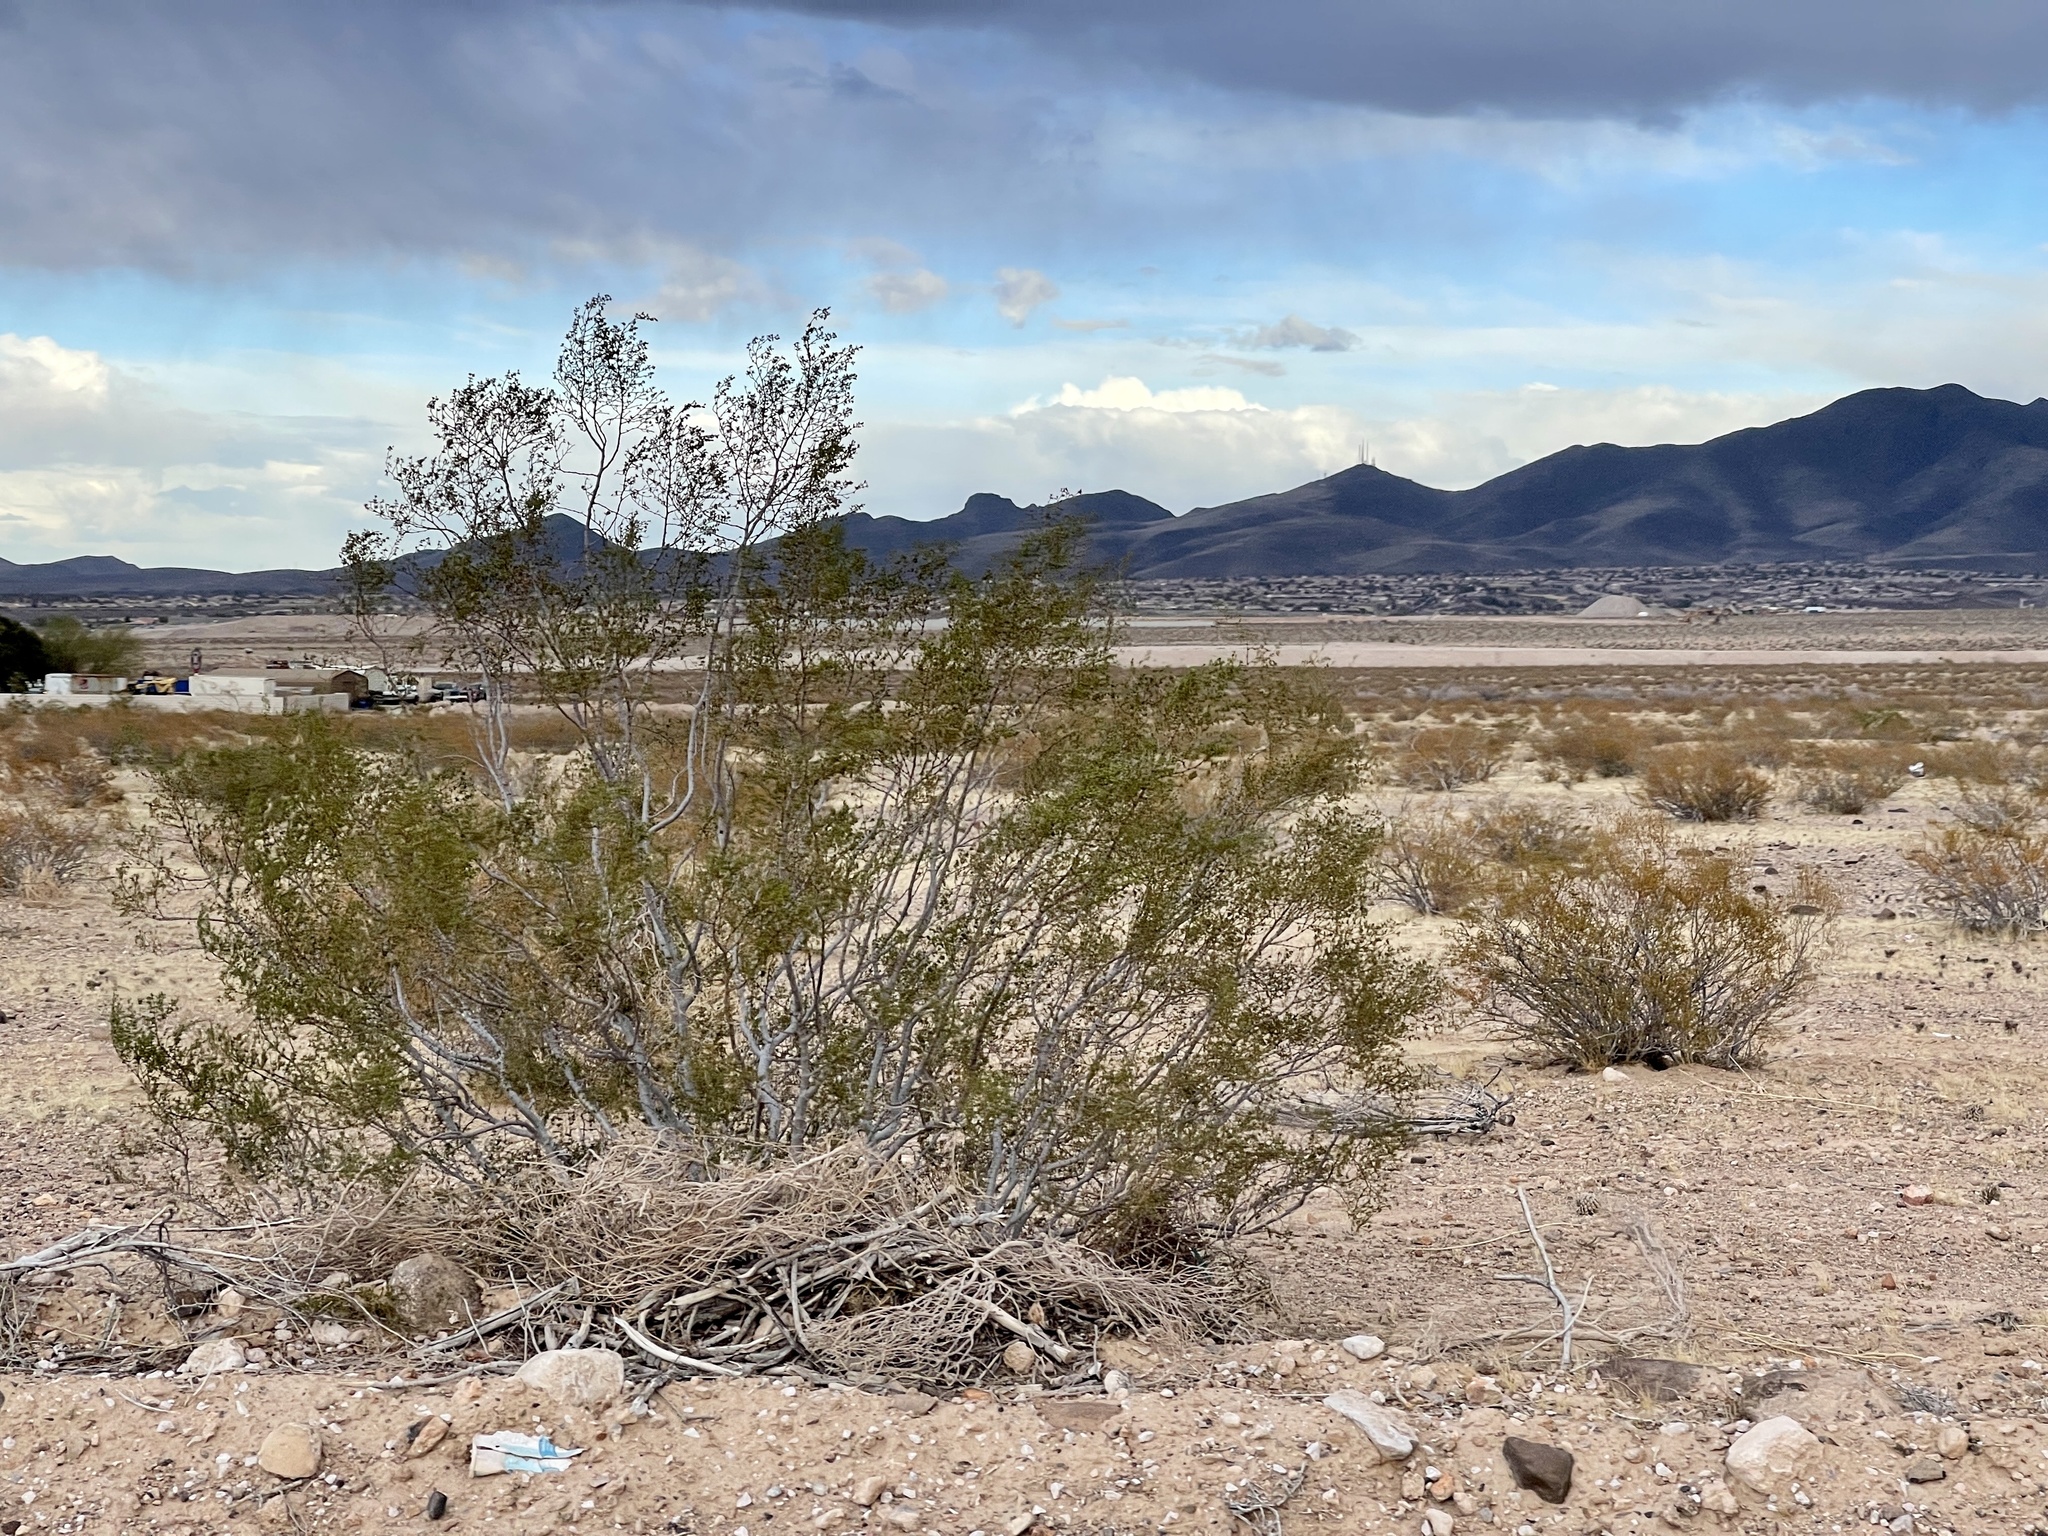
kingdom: Plantae
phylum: Tracheophyta
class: Magnoliopsida
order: Zygophyllales
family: Zygophyllaceae
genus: Larrea
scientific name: Larrea tridentata
